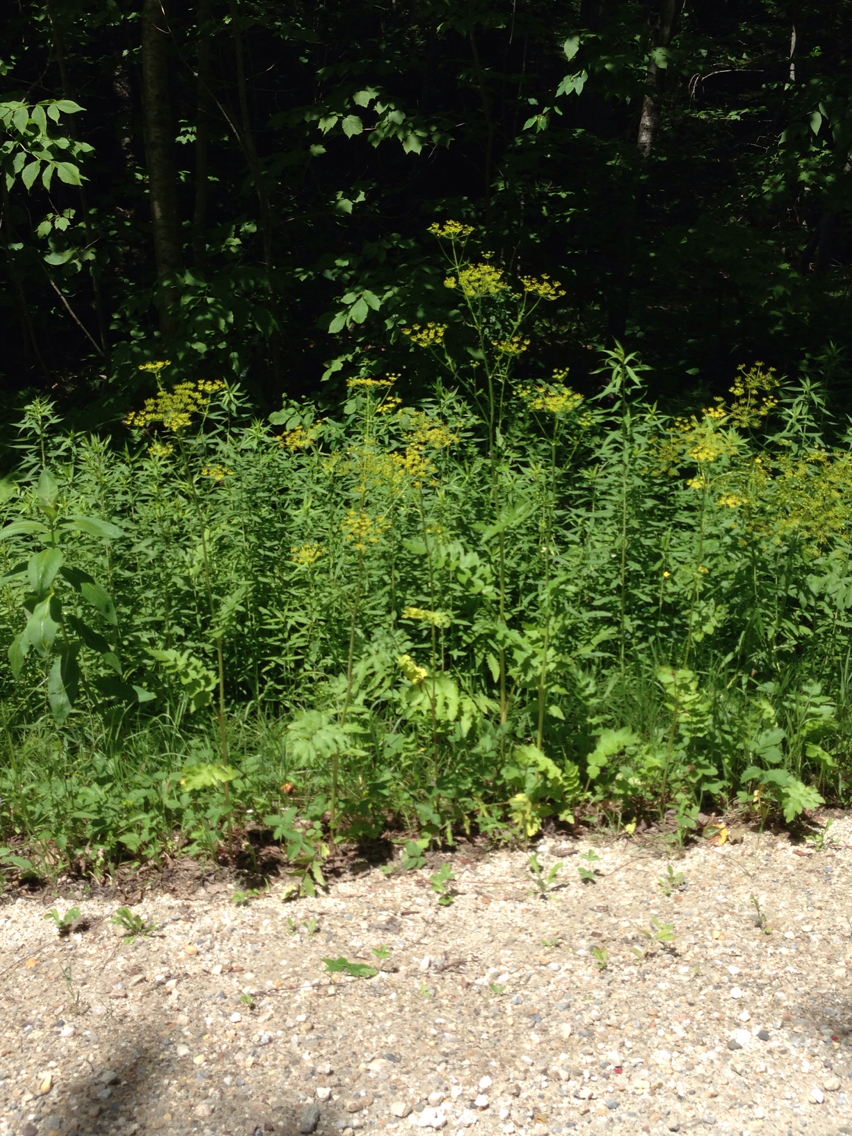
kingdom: Plantae
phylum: Tracheophyta
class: Magnoliopsida
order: Apiales
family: Apiaceae
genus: Pastinaca
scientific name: Pastinaca sativa
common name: Wild parsnip
